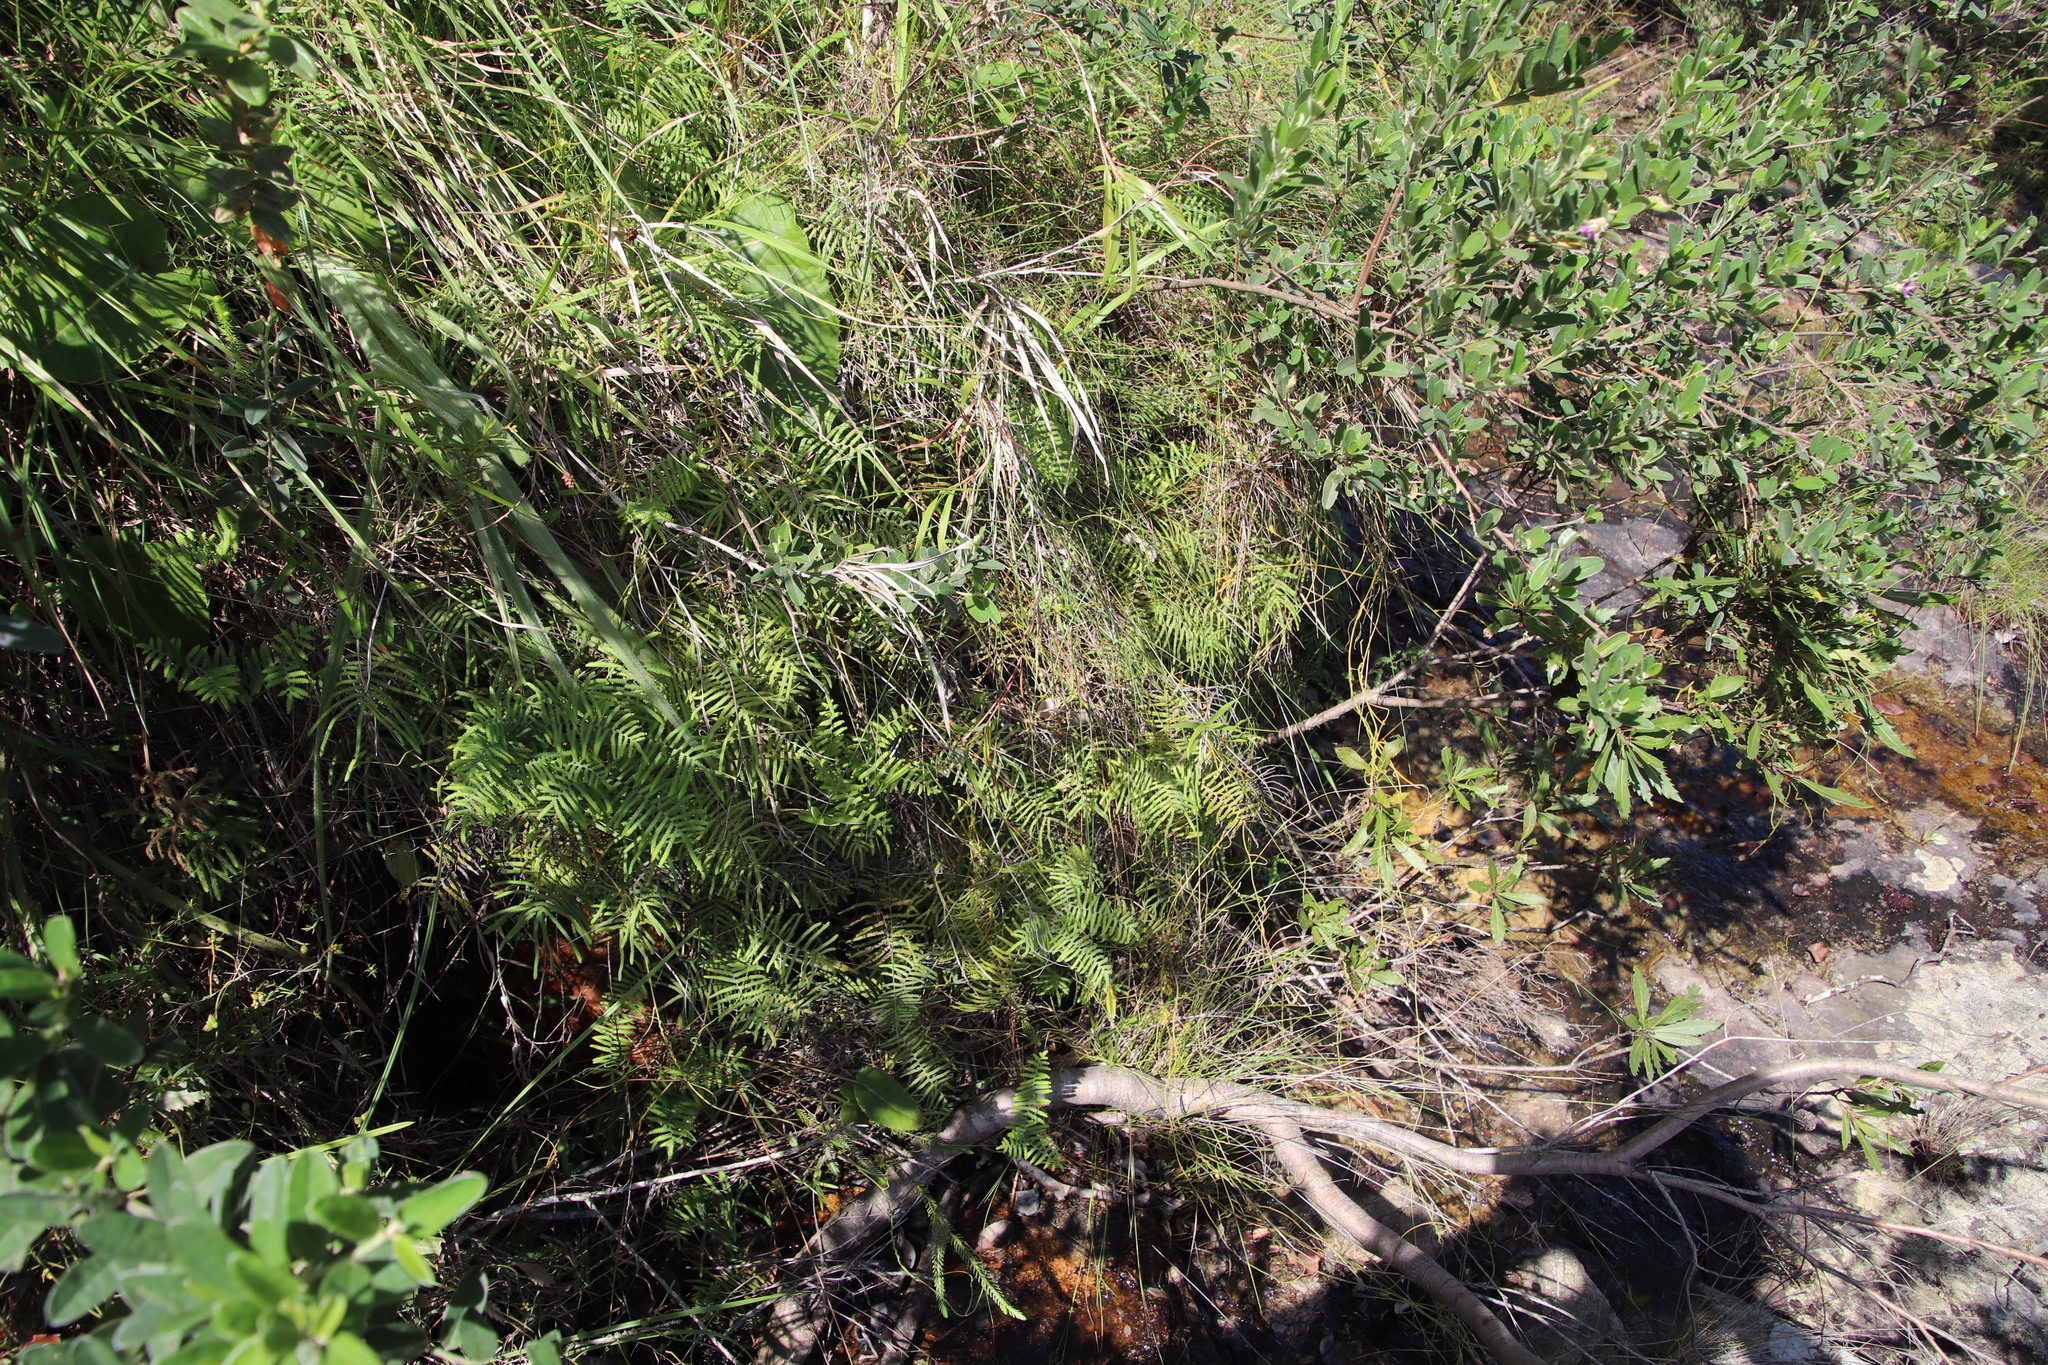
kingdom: Plantae
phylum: Tracheophyta
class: Polypodiopsida
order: Gleicheniales
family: Gleicheniaceae
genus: Gleichenia
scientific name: Gleichenia polypodioides
